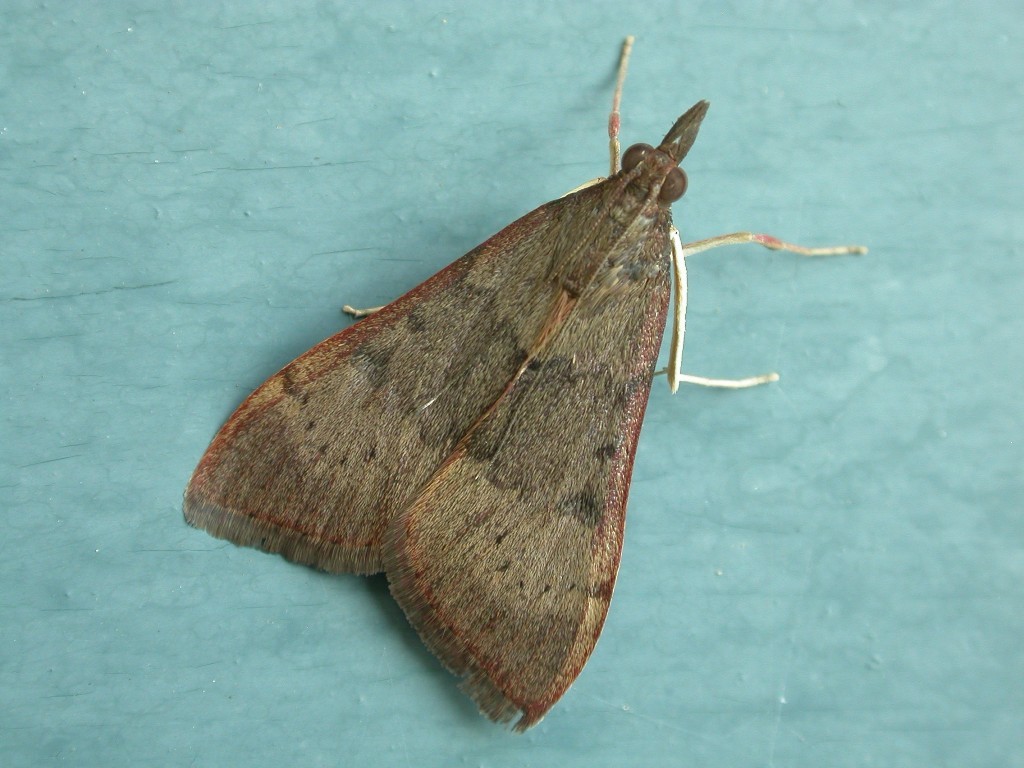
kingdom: Animalia
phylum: Arthropoda
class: Insecta
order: Lepidoptera
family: Crambidae
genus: Uresiphita
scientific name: Uresiphita ornithopteralis
